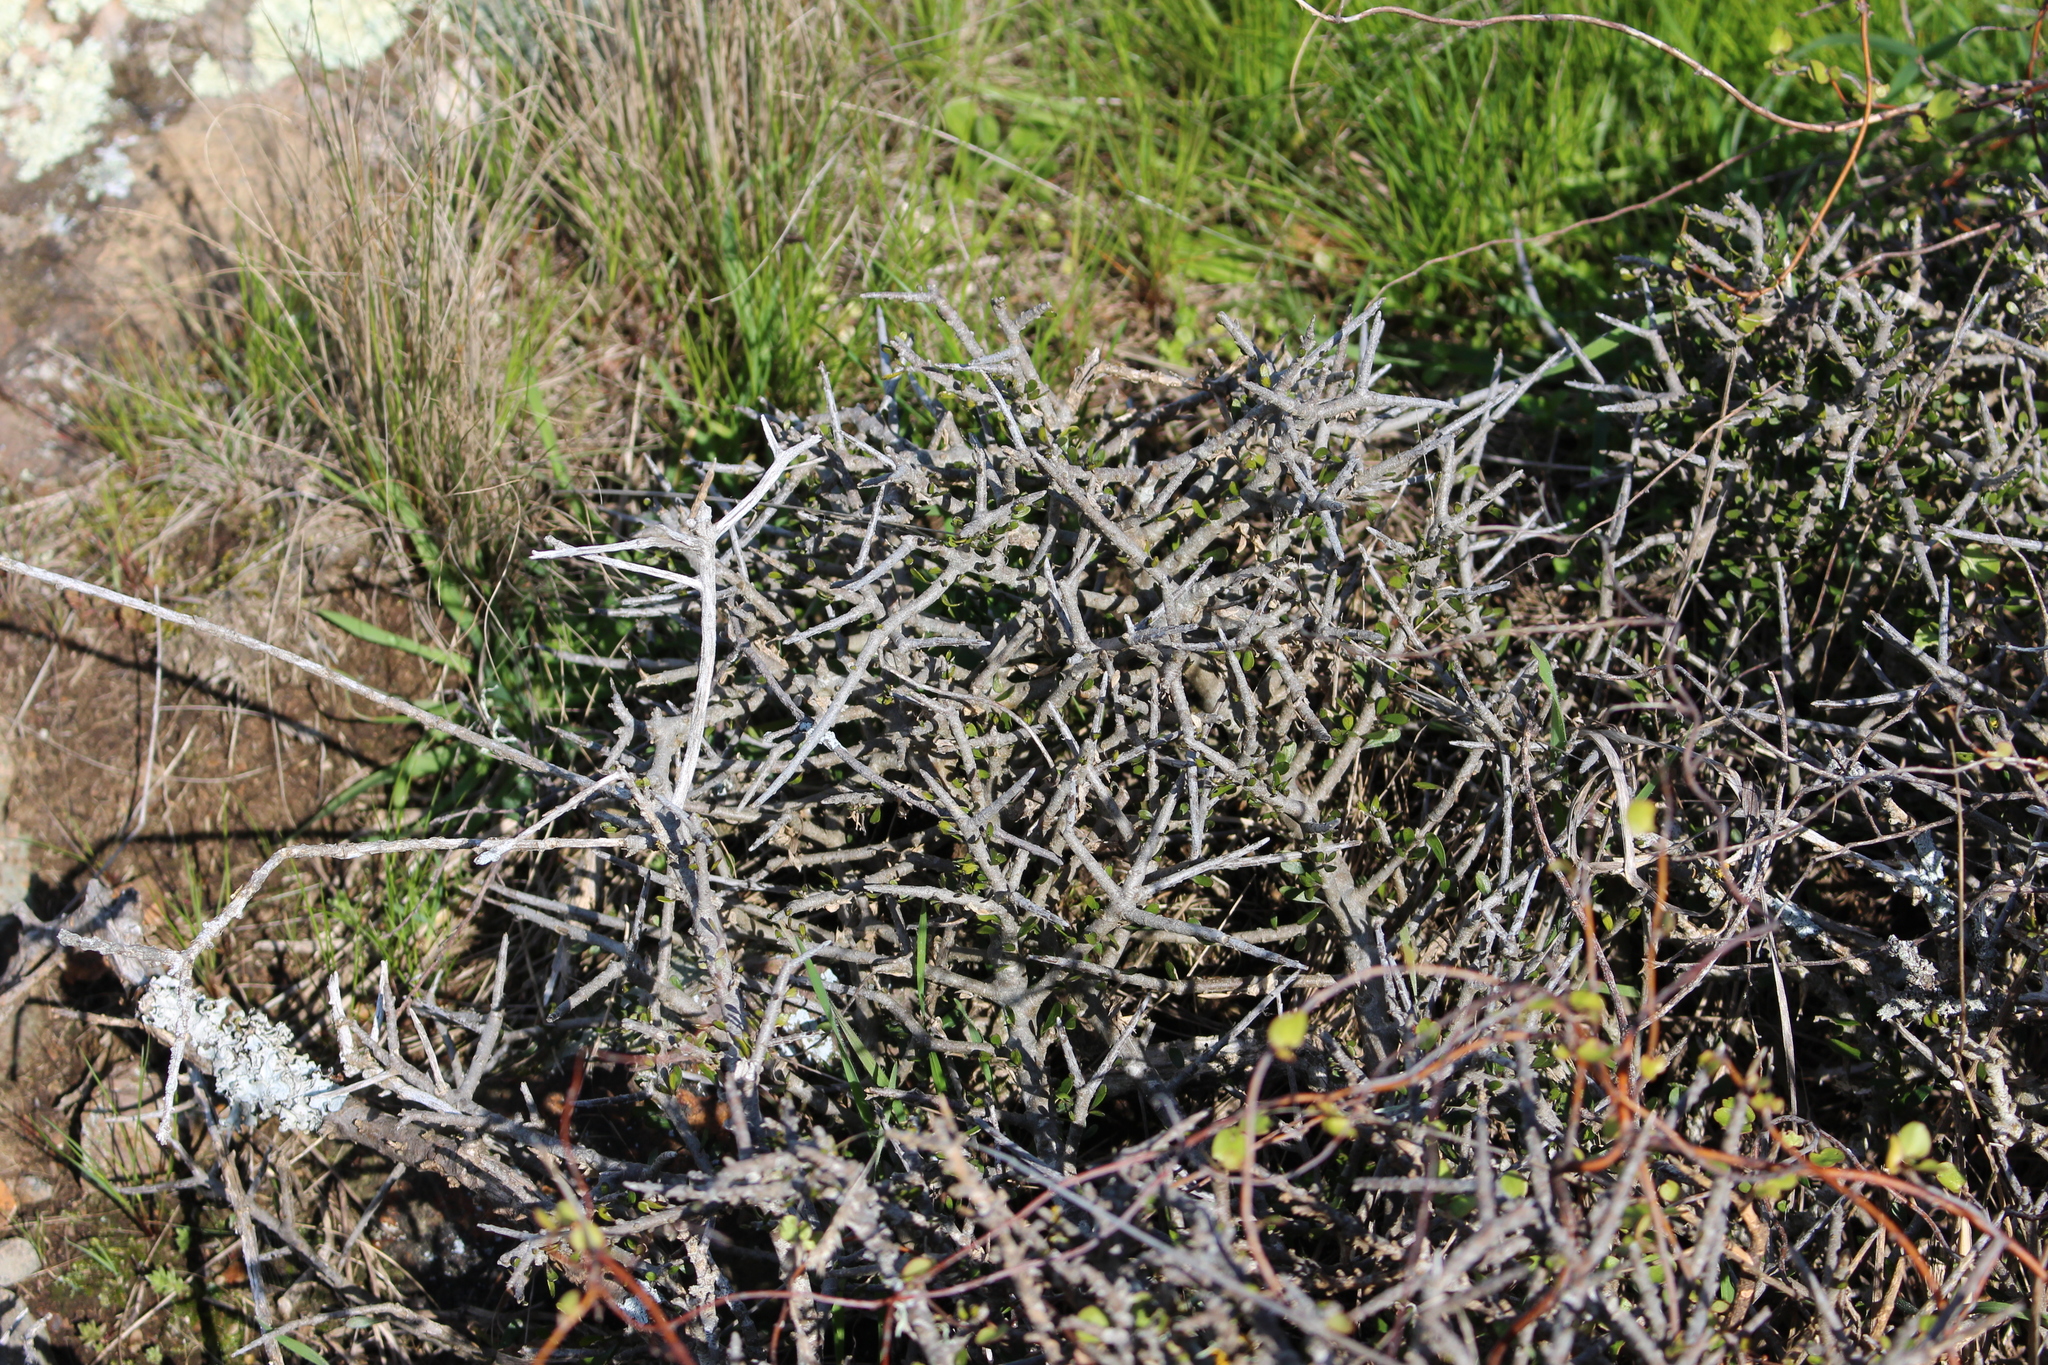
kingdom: Plantae
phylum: Tracheophyta
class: Magnoliopsida
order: Malpighiales
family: Violaceae
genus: Melicytus
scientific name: Melicytus alpinus
